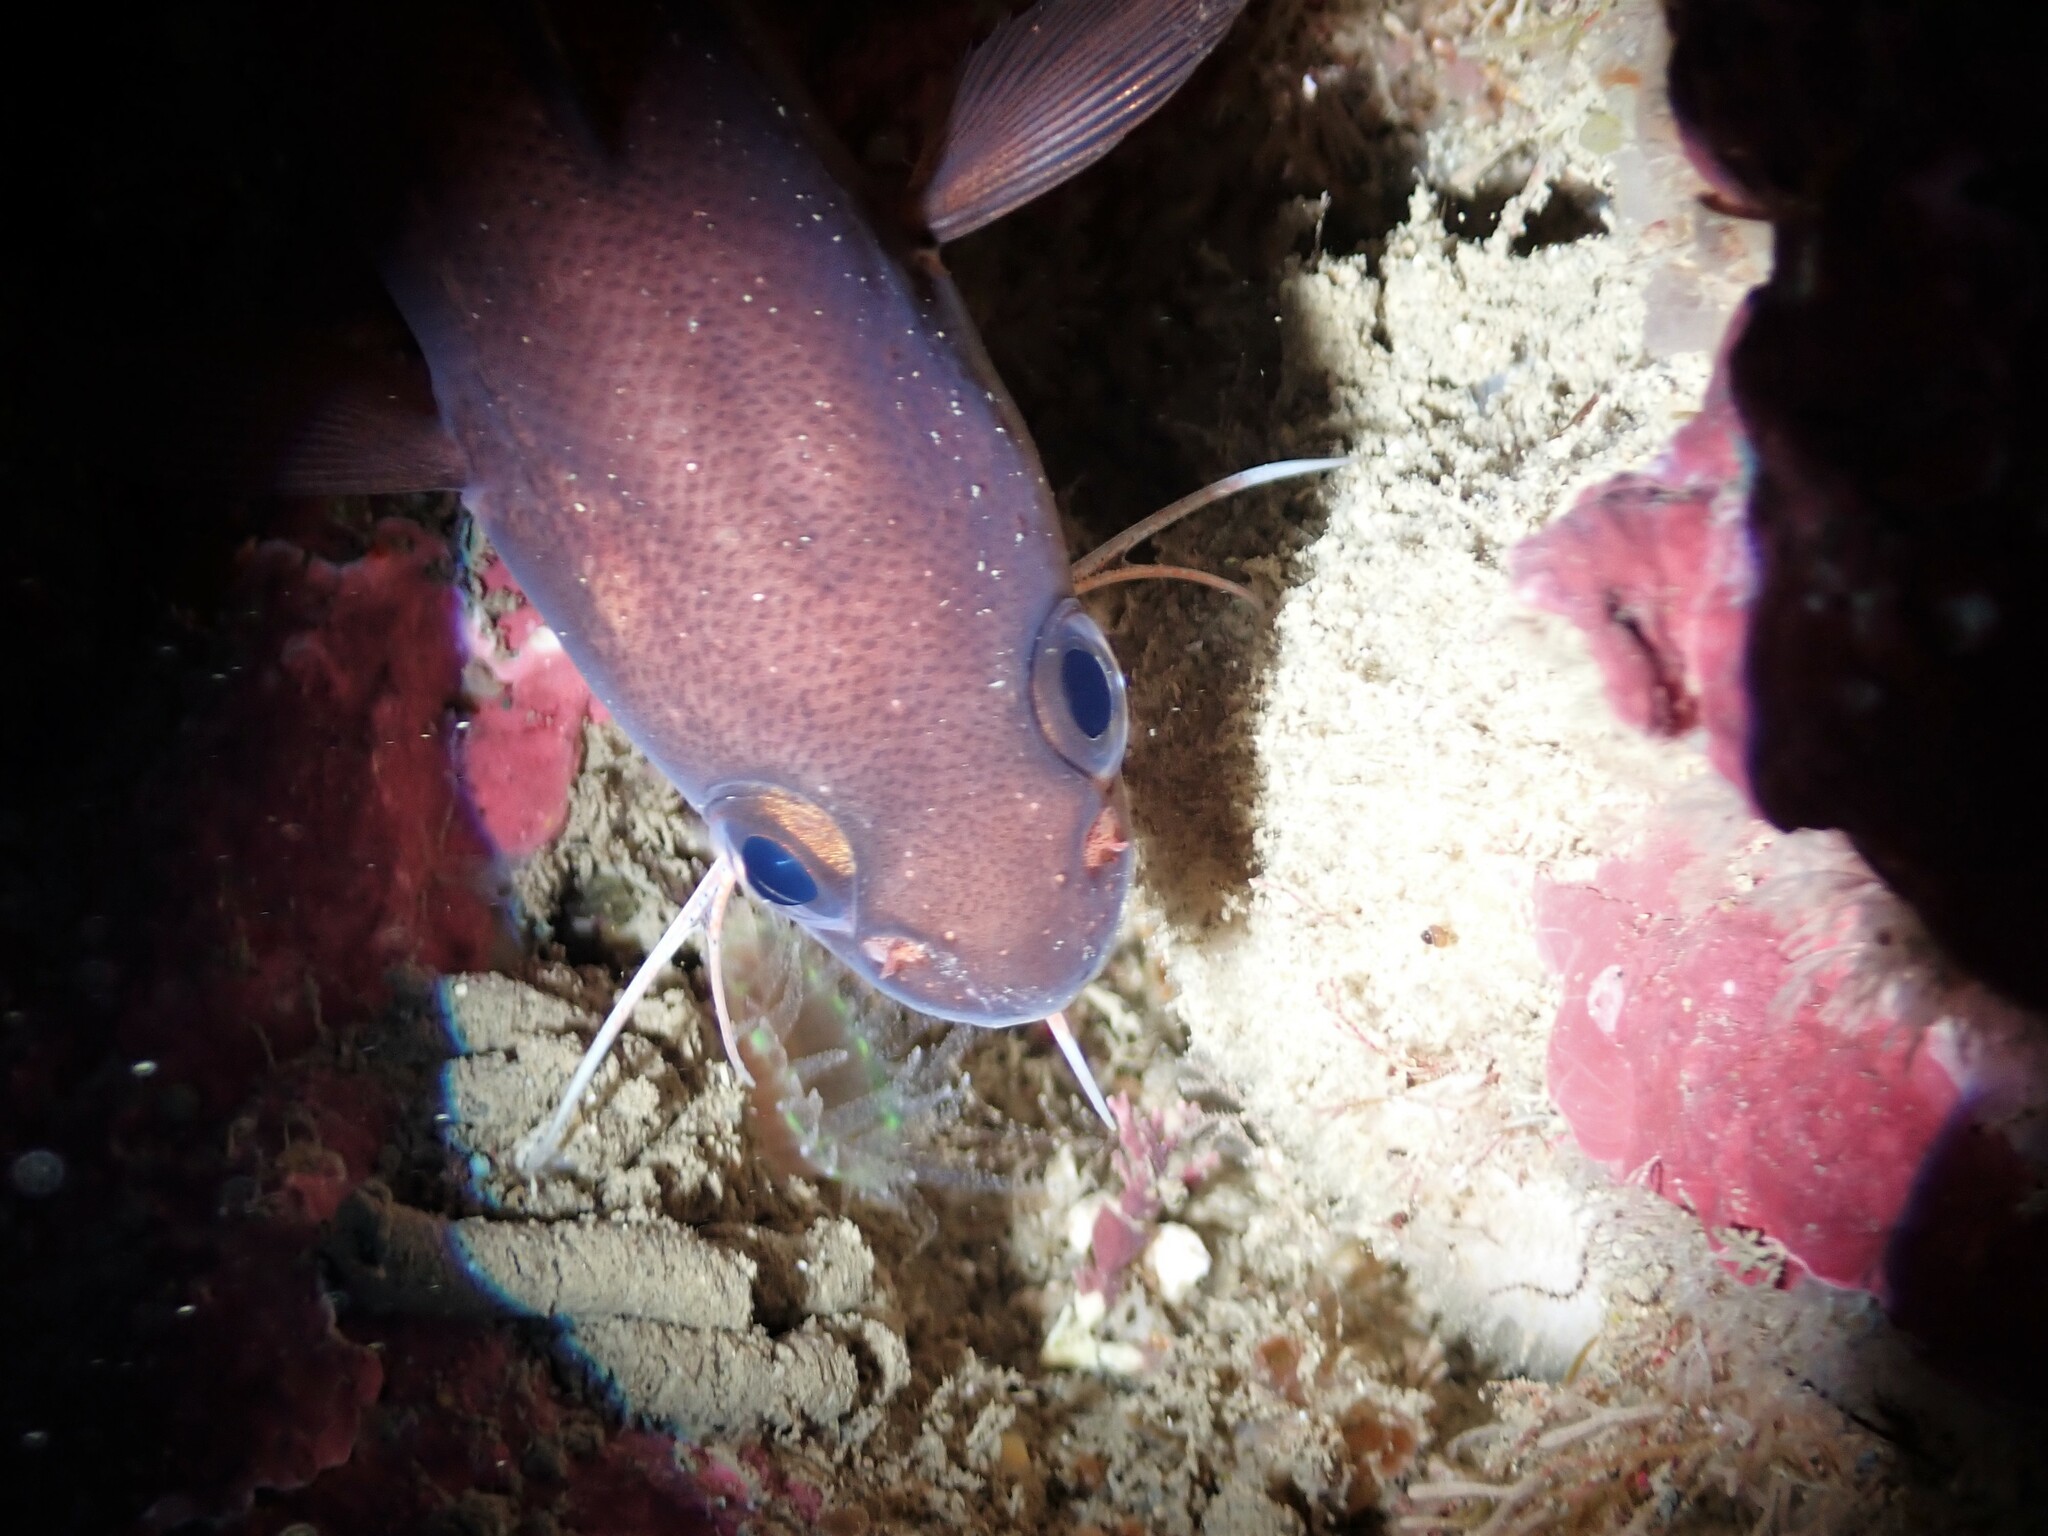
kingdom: Animalia
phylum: Chordata
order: Gadiformes
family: Moridae
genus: Pseudophycis
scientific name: Pseudophycis breviuscula
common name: Northern bastard codling
